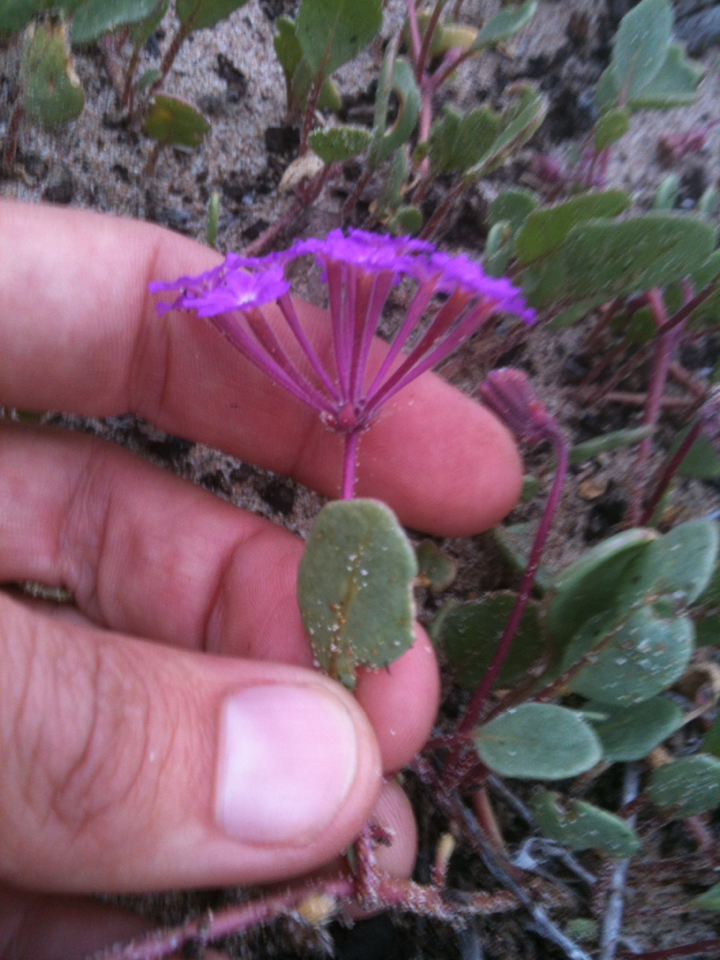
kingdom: Plantae
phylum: Tracheophyta
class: Magnoliopsida
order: Caryophyllales
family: Nyctaginaceae
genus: Abronia
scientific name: Abronia umbellata
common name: Sand-verbena
